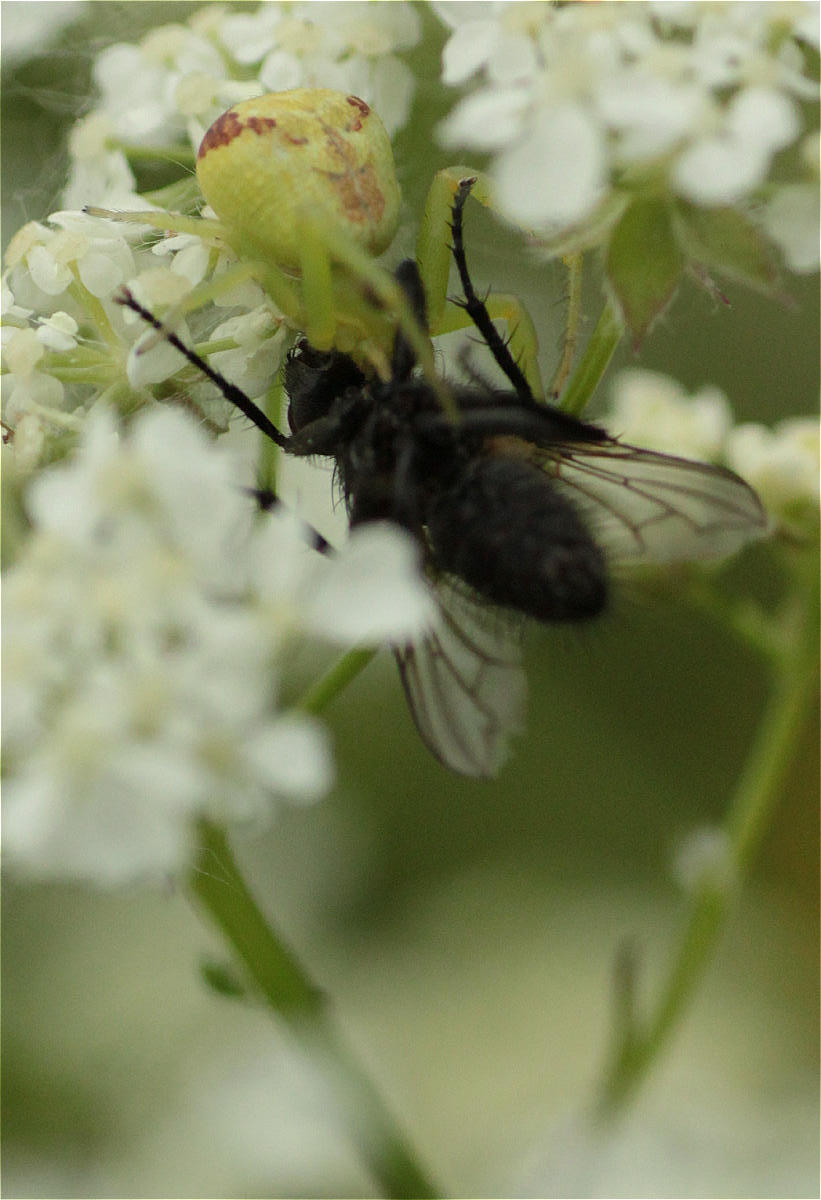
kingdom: Animalia
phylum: Arthropoda
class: Arachnida
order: Araneae
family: Thomisidae
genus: Ebrechtella
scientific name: Ebrechtella tricuspidata
